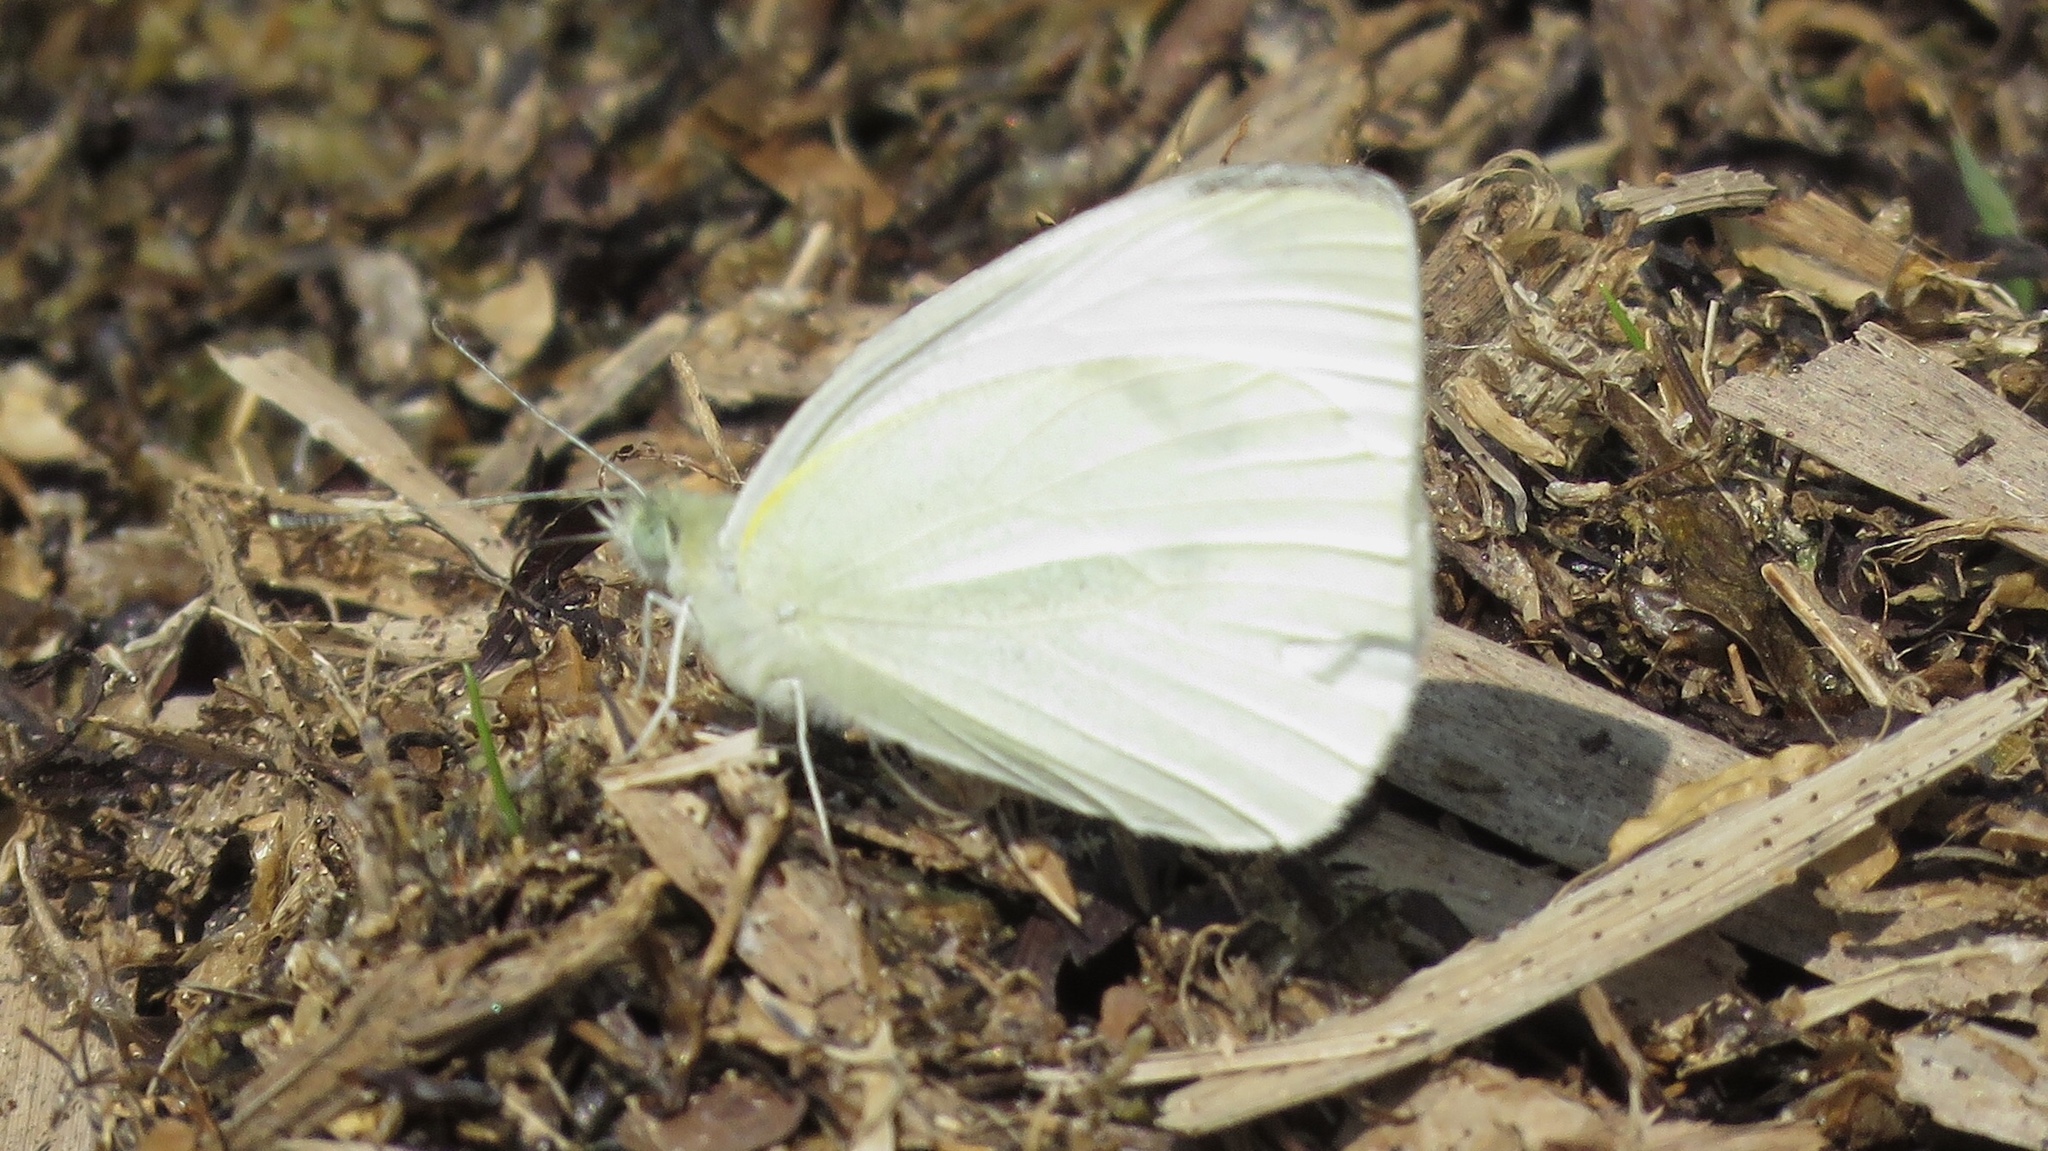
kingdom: Animalia
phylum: Arthropoda
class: Insecta
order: Lepidoptera
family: Pieridae
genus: Pieris
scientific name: Pieris rapae
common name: Small white
